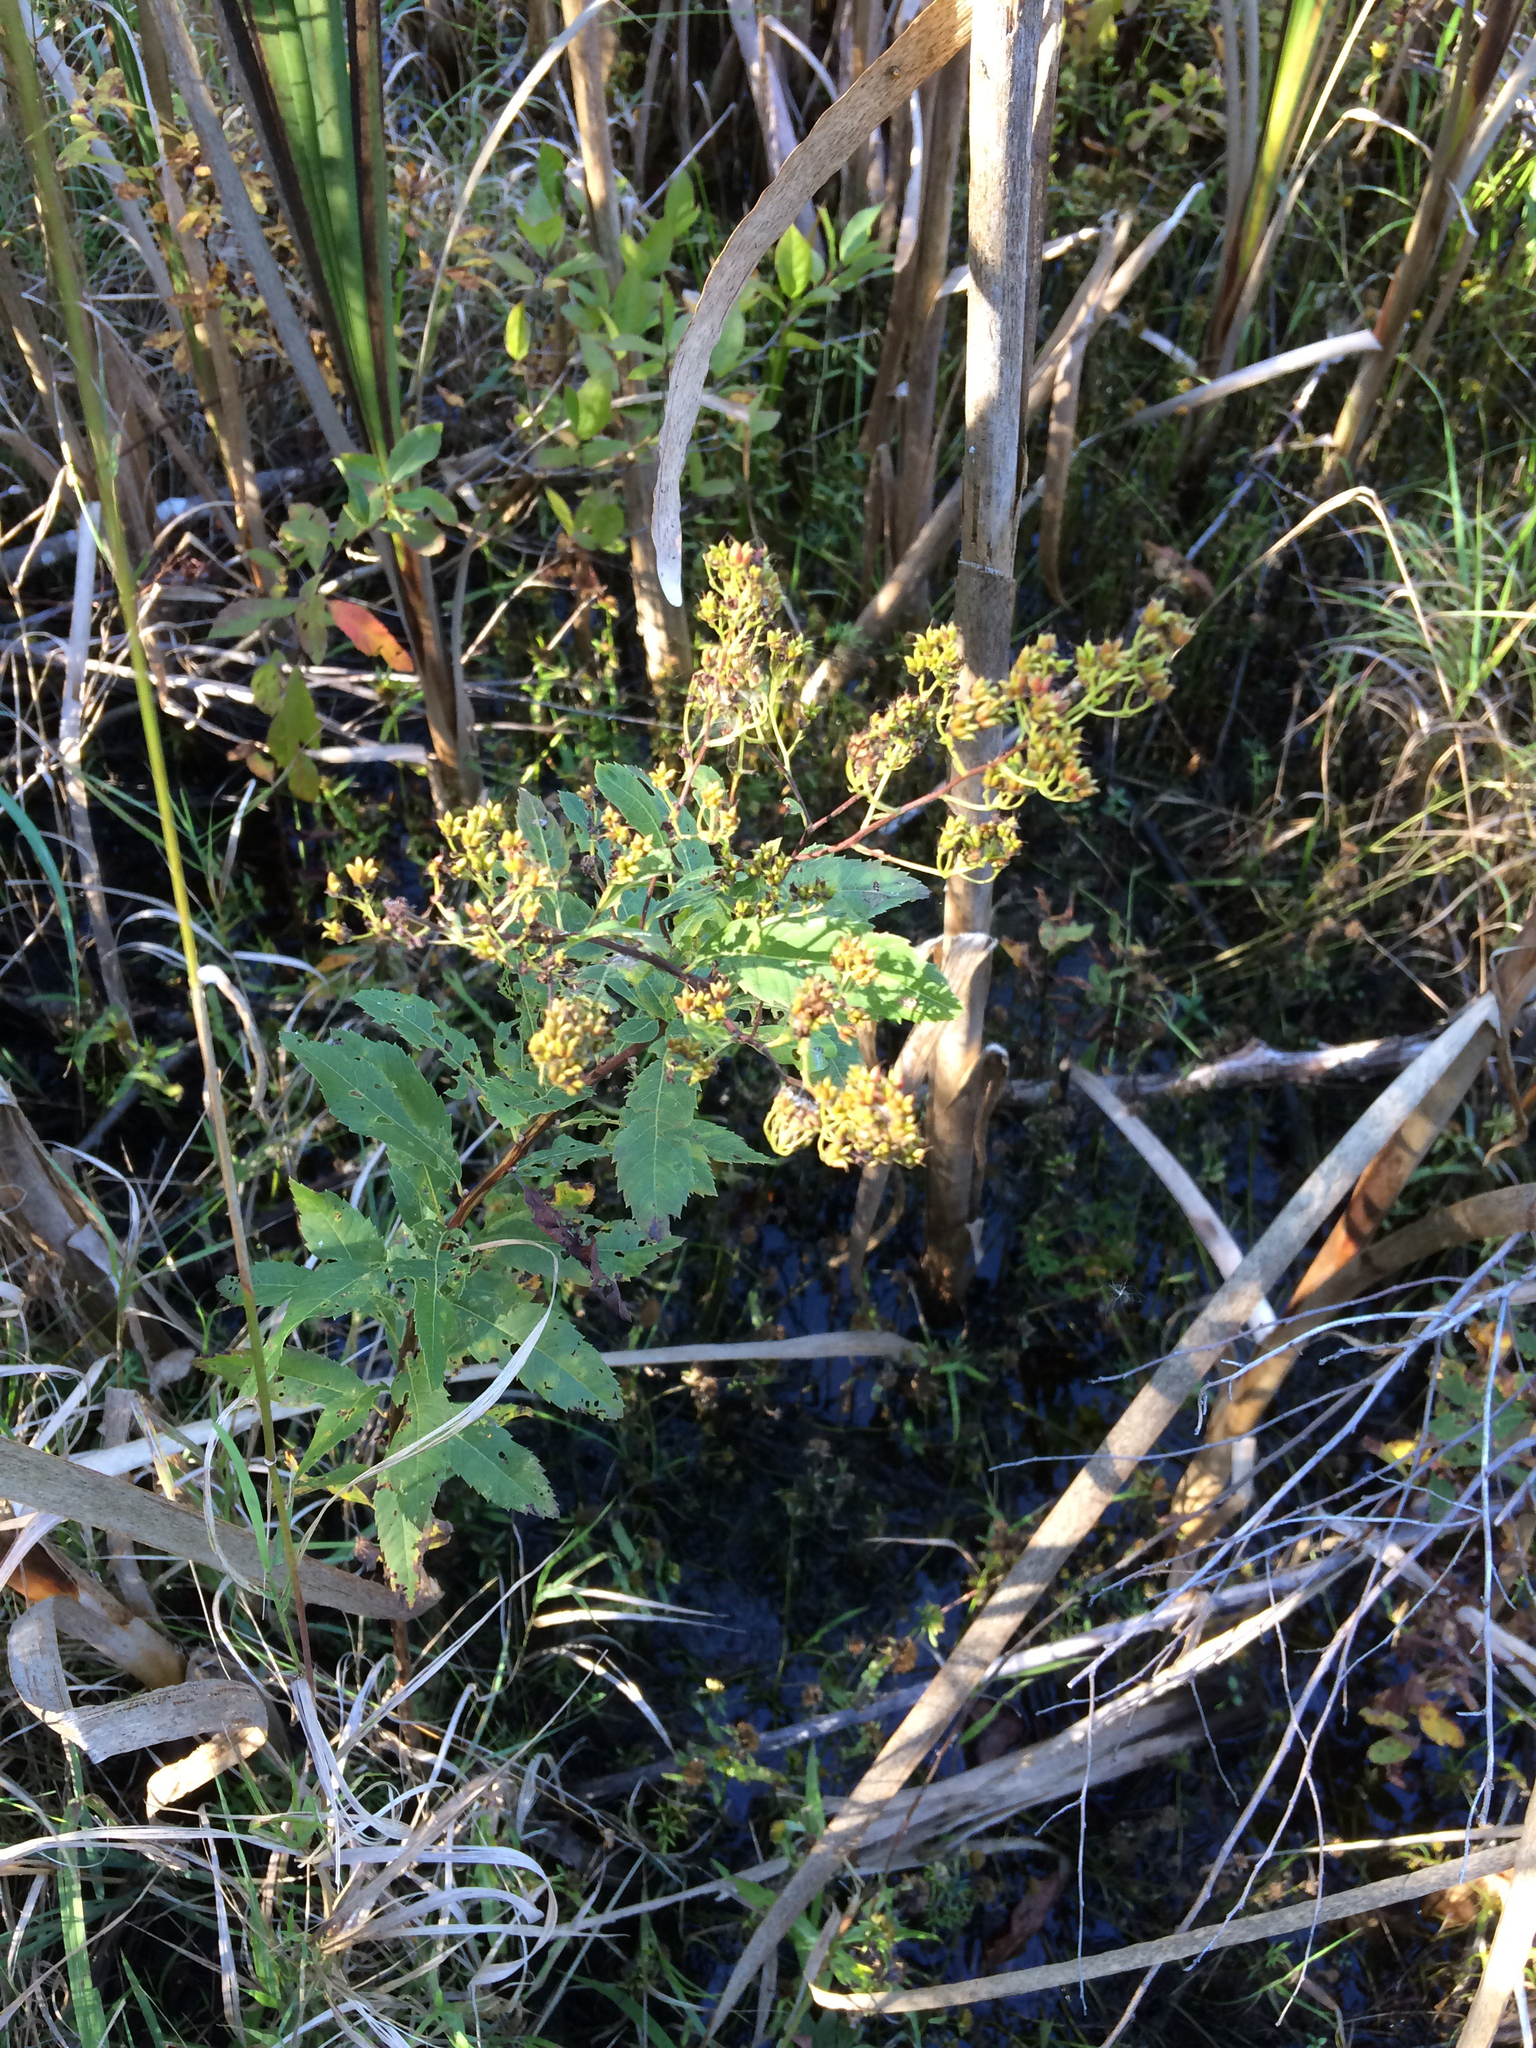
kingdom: Plantae
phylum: Tracheophyta
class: Magnoliopsida
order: Rosales
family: Rosaceae
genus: Spiraea
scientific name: Spiraea alba
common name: Pale bridewort
